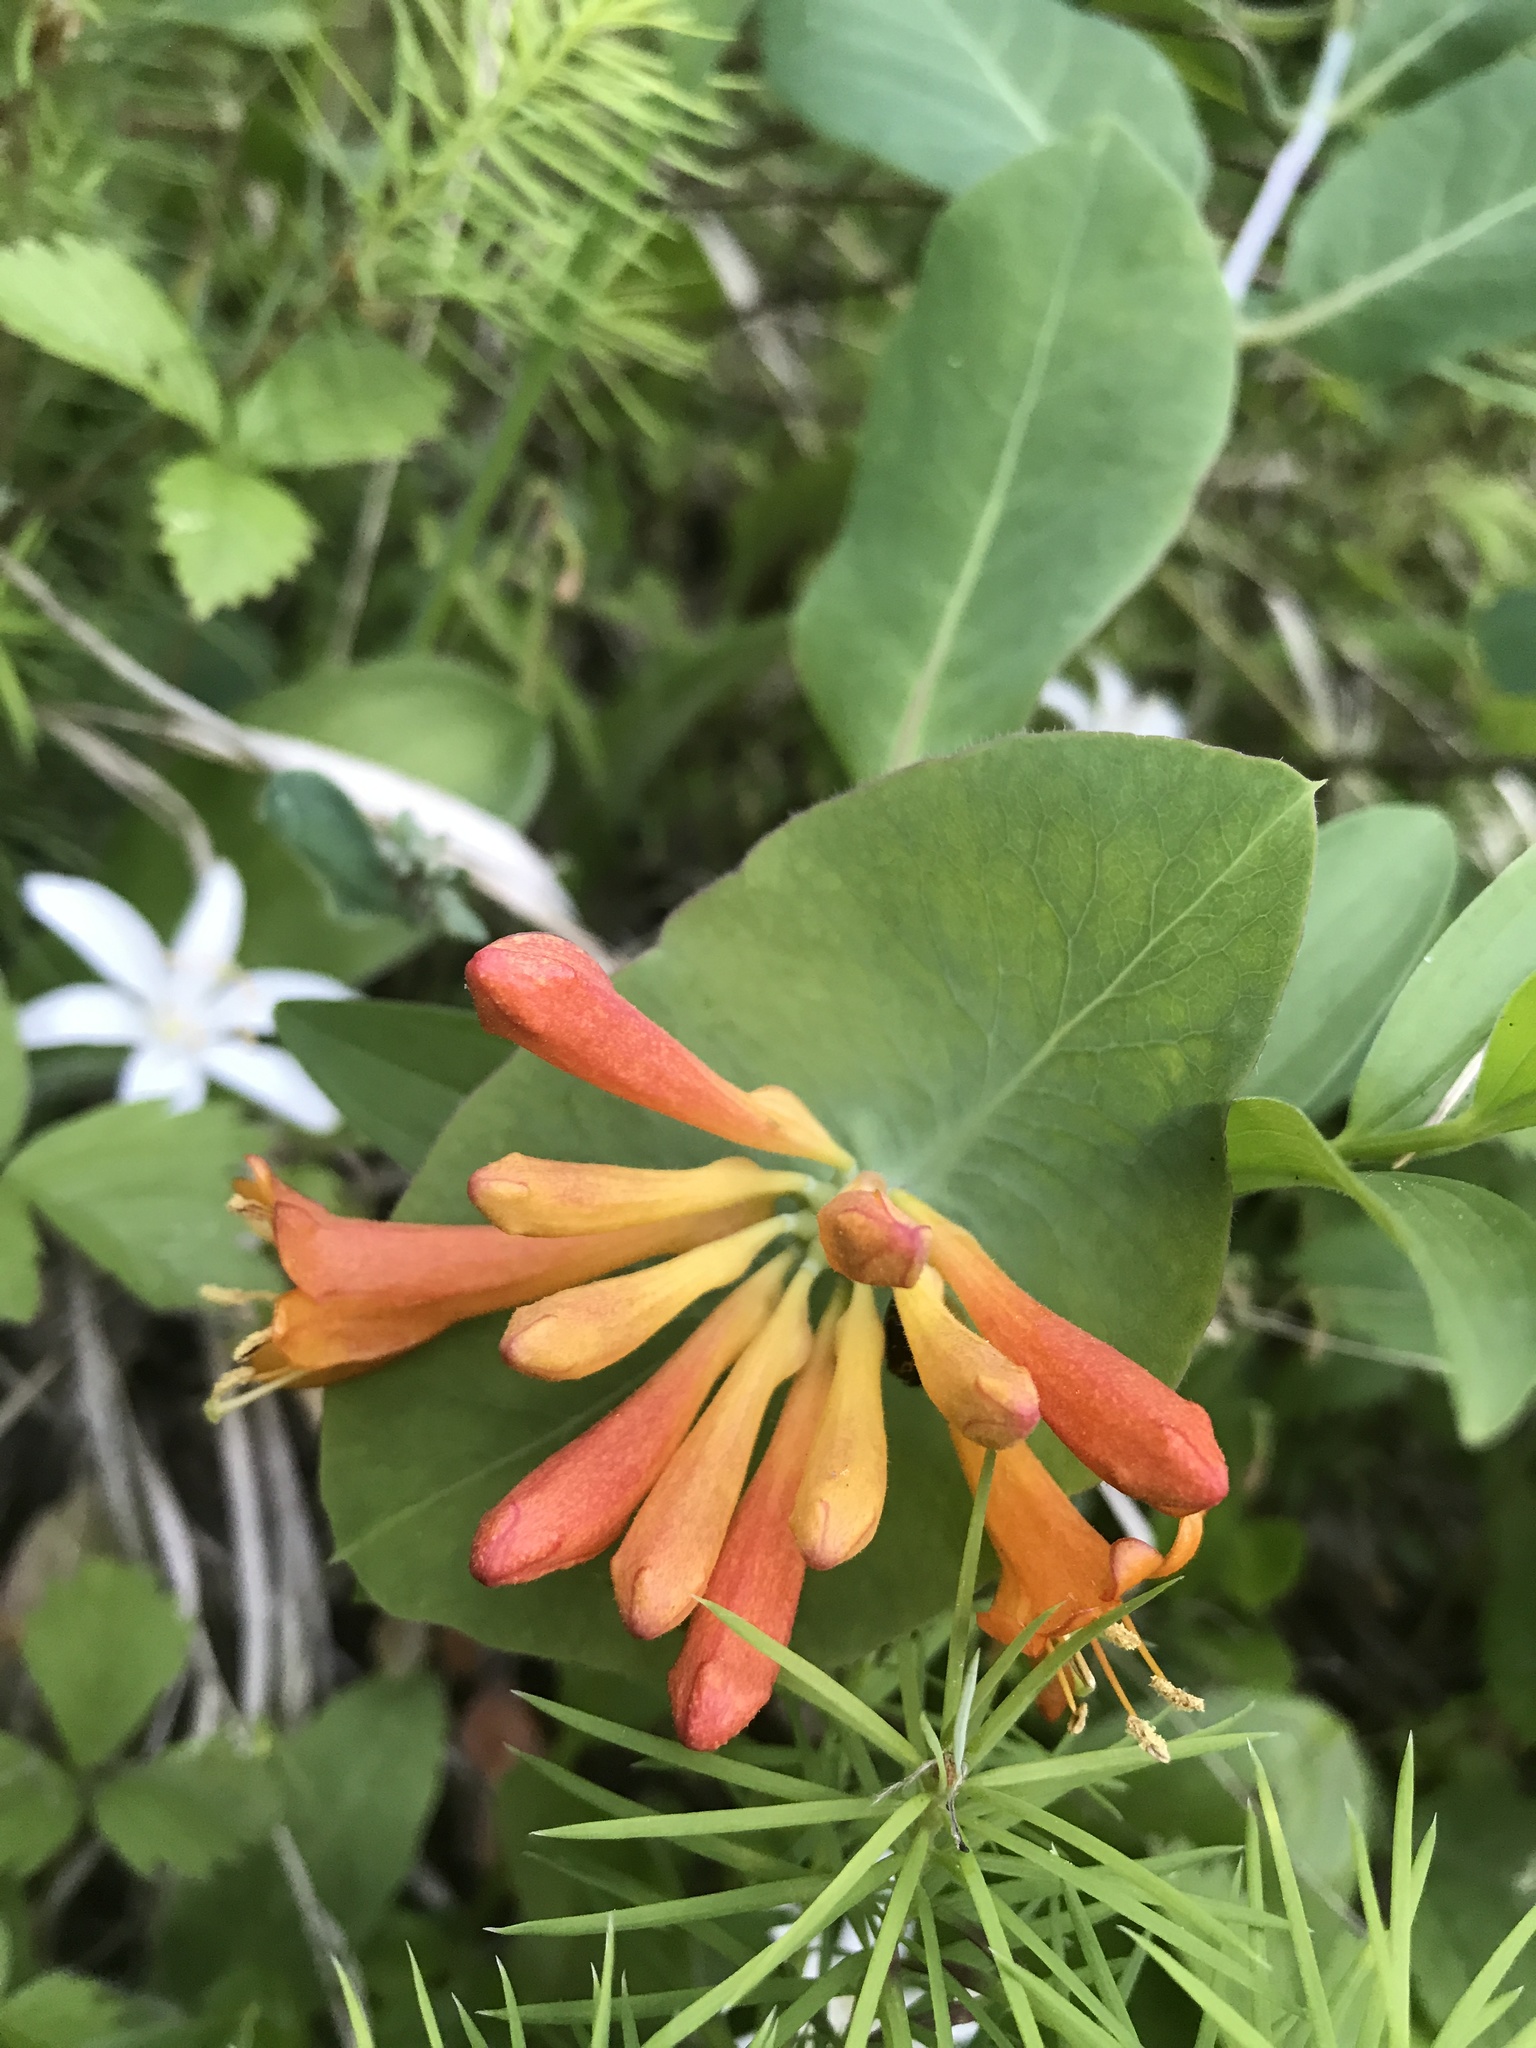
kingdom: Plantae
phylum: Tracheophyta
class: Magnoliopsida
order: Dipsacales
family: Caprifoliaceae
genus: Lonicera
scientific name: Lonicera ciliosa
